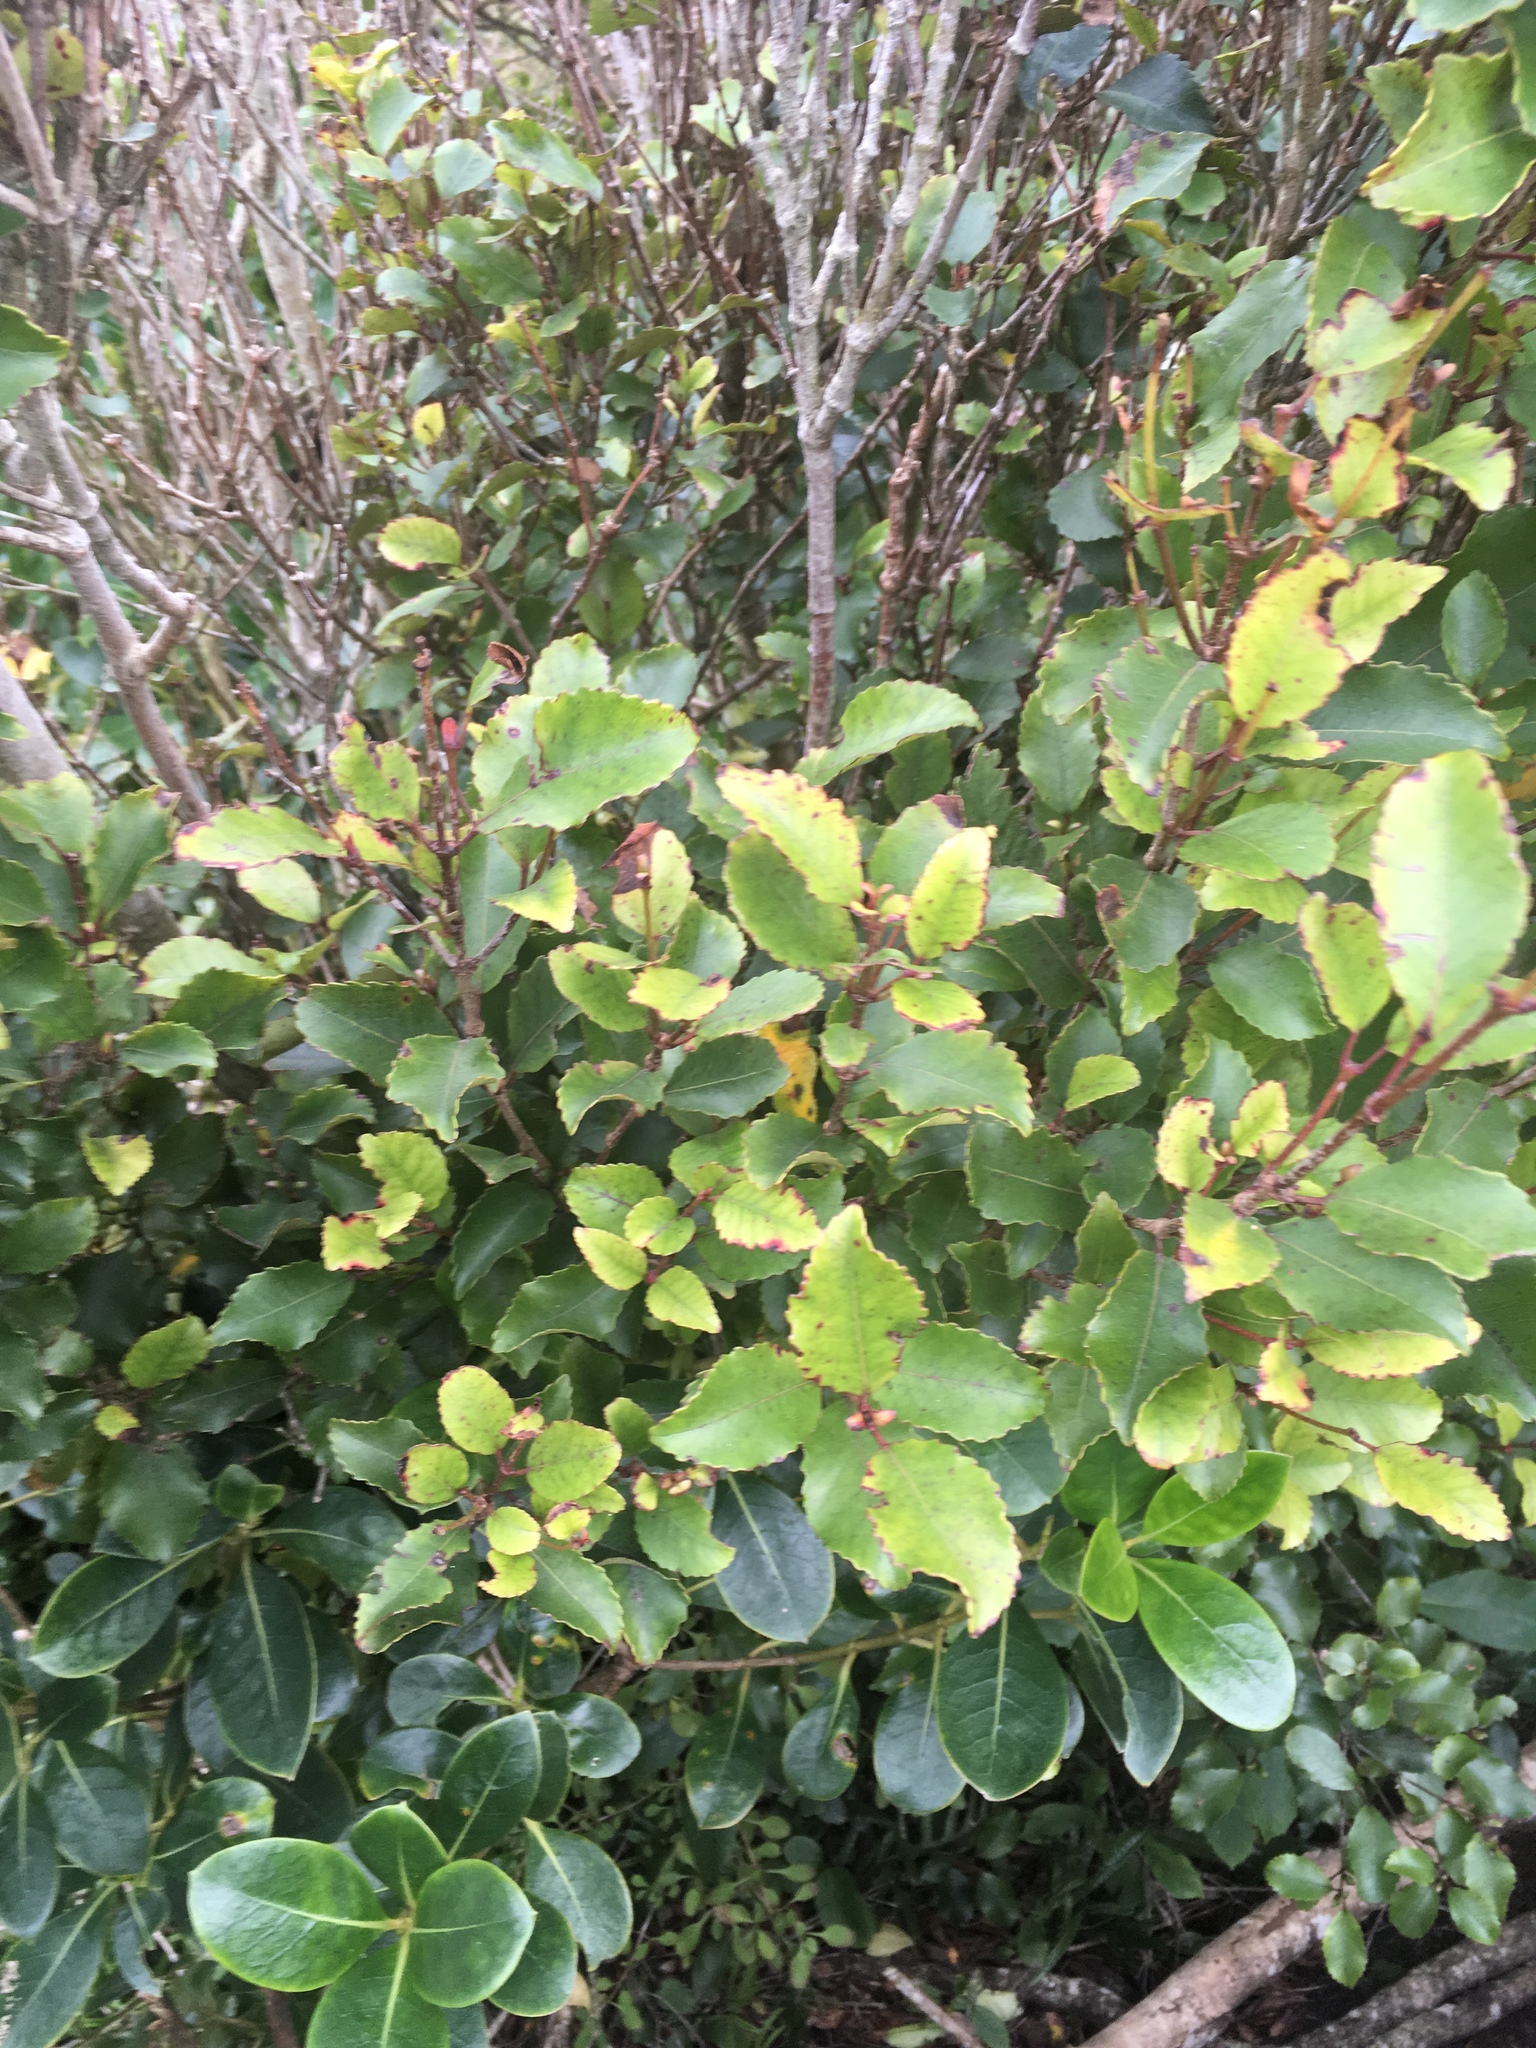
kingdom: Plantae
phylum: Tracheophyta
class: Magnoliopsida
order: Oxalidales
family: Cunoniaceae
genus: Pterophylla
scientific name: Pterophylla racemosa
